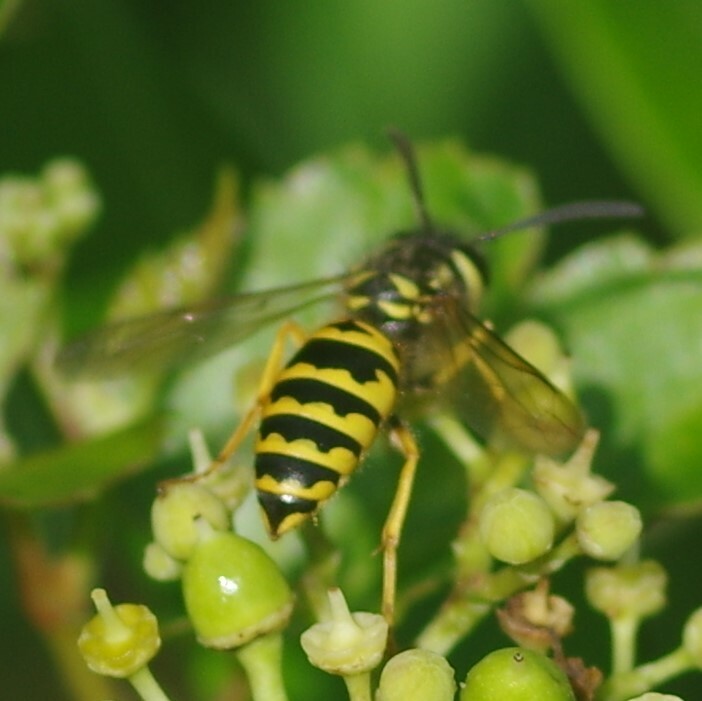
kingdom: Animalia
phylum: Arthropoda
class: Insecta
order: Hymenoptera
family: Vespidae
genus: Vespula
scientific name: Vespula maculifrons
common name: Eastern yellowjacket
